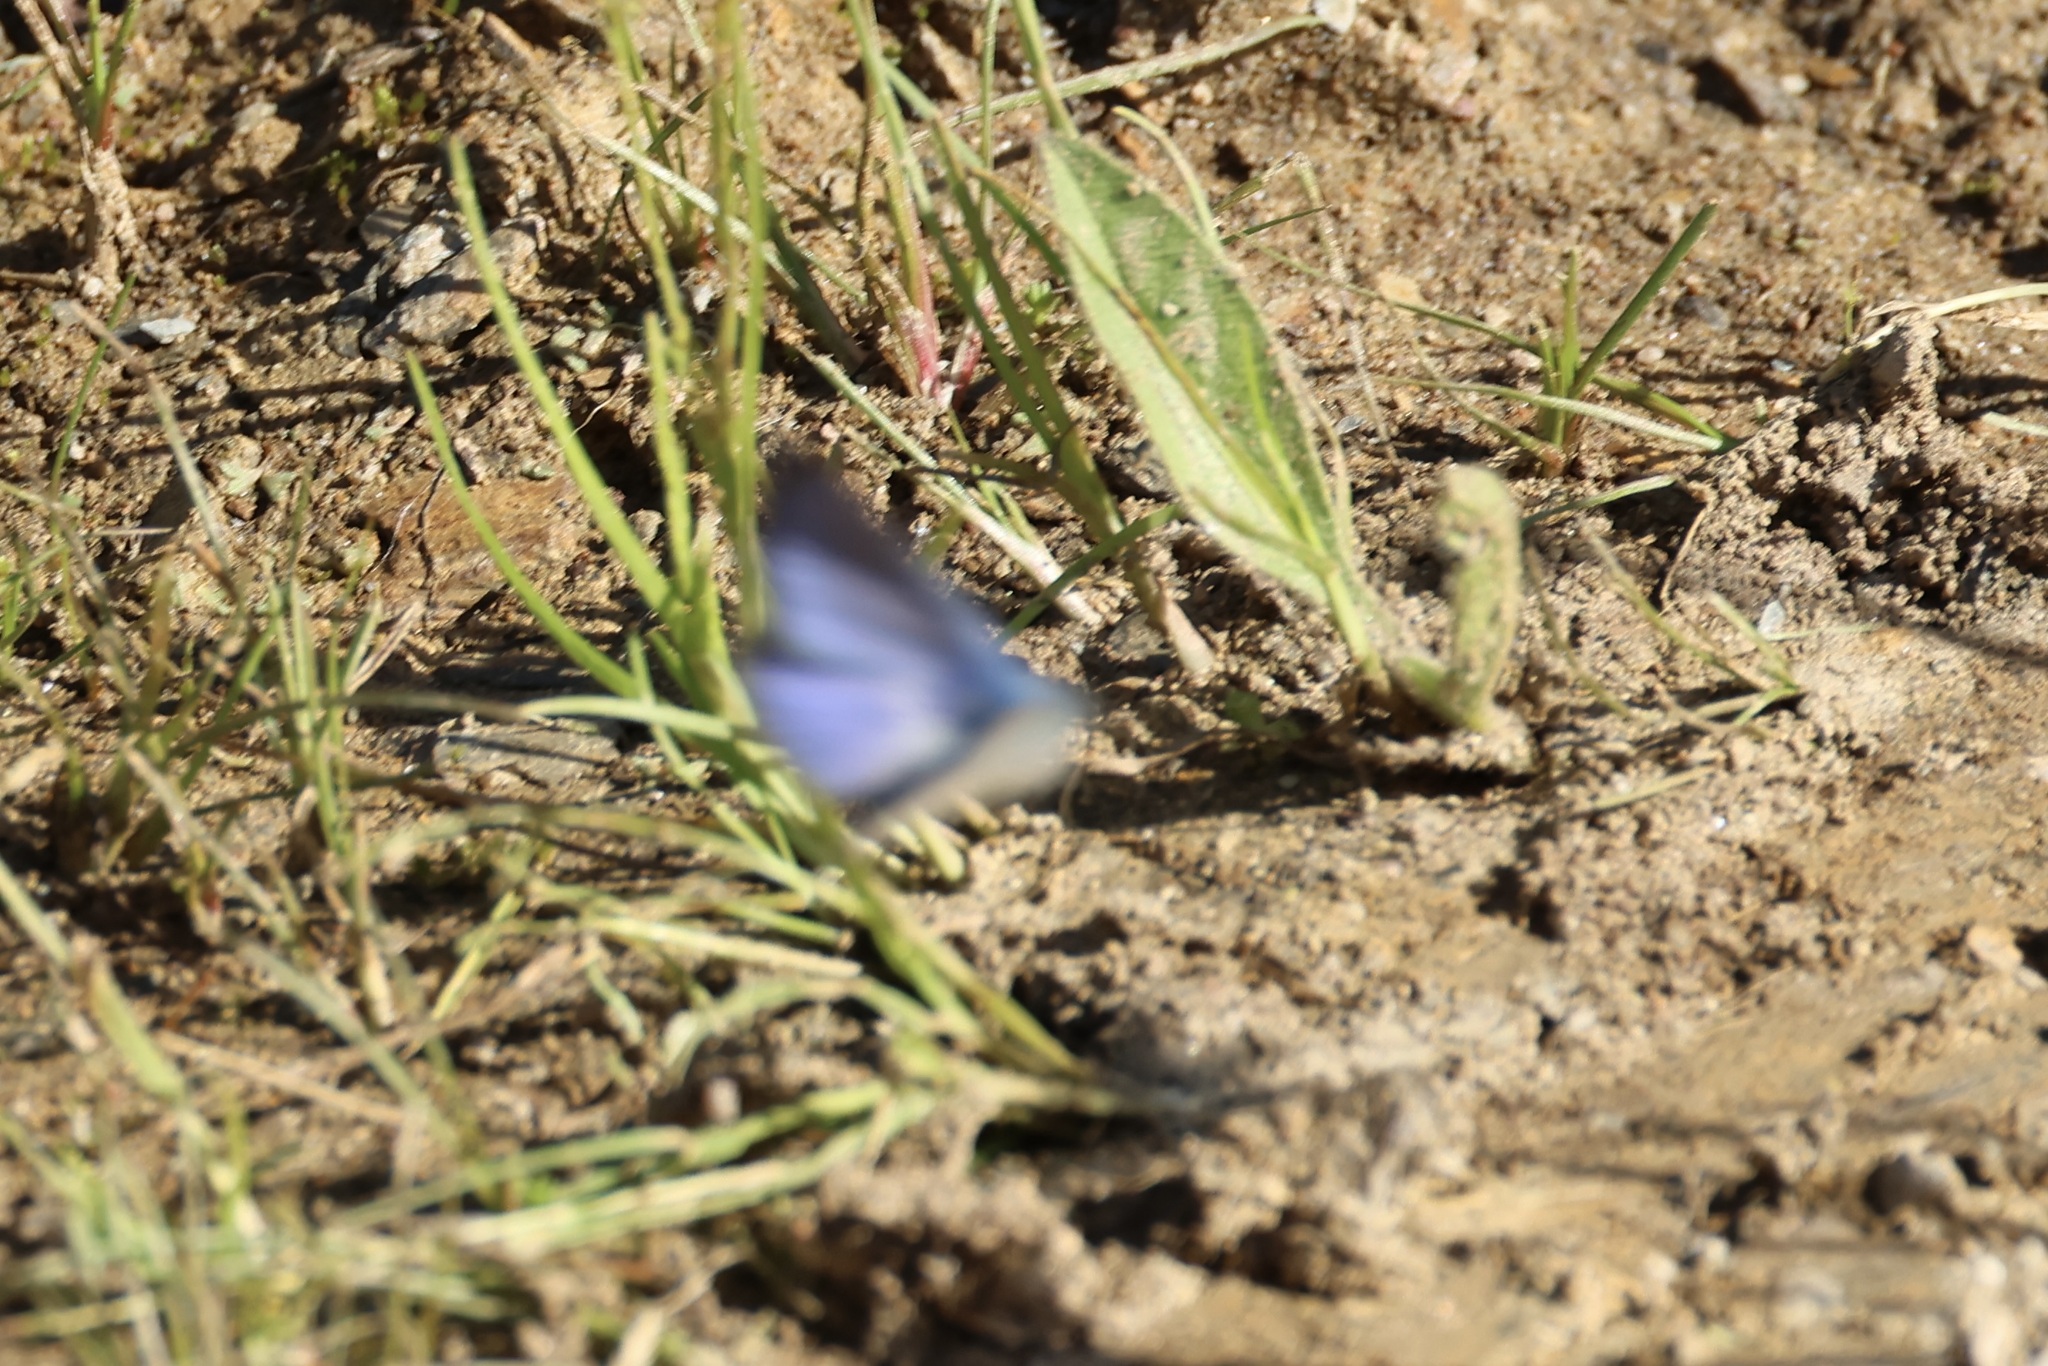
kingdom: Animalia
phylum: Arthropoda
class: Insecta
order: Lepidoptera
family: Lycaenidae
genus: Glaucopsyche
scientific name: Glaucopsyche melanops
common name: Black-eyed blue
